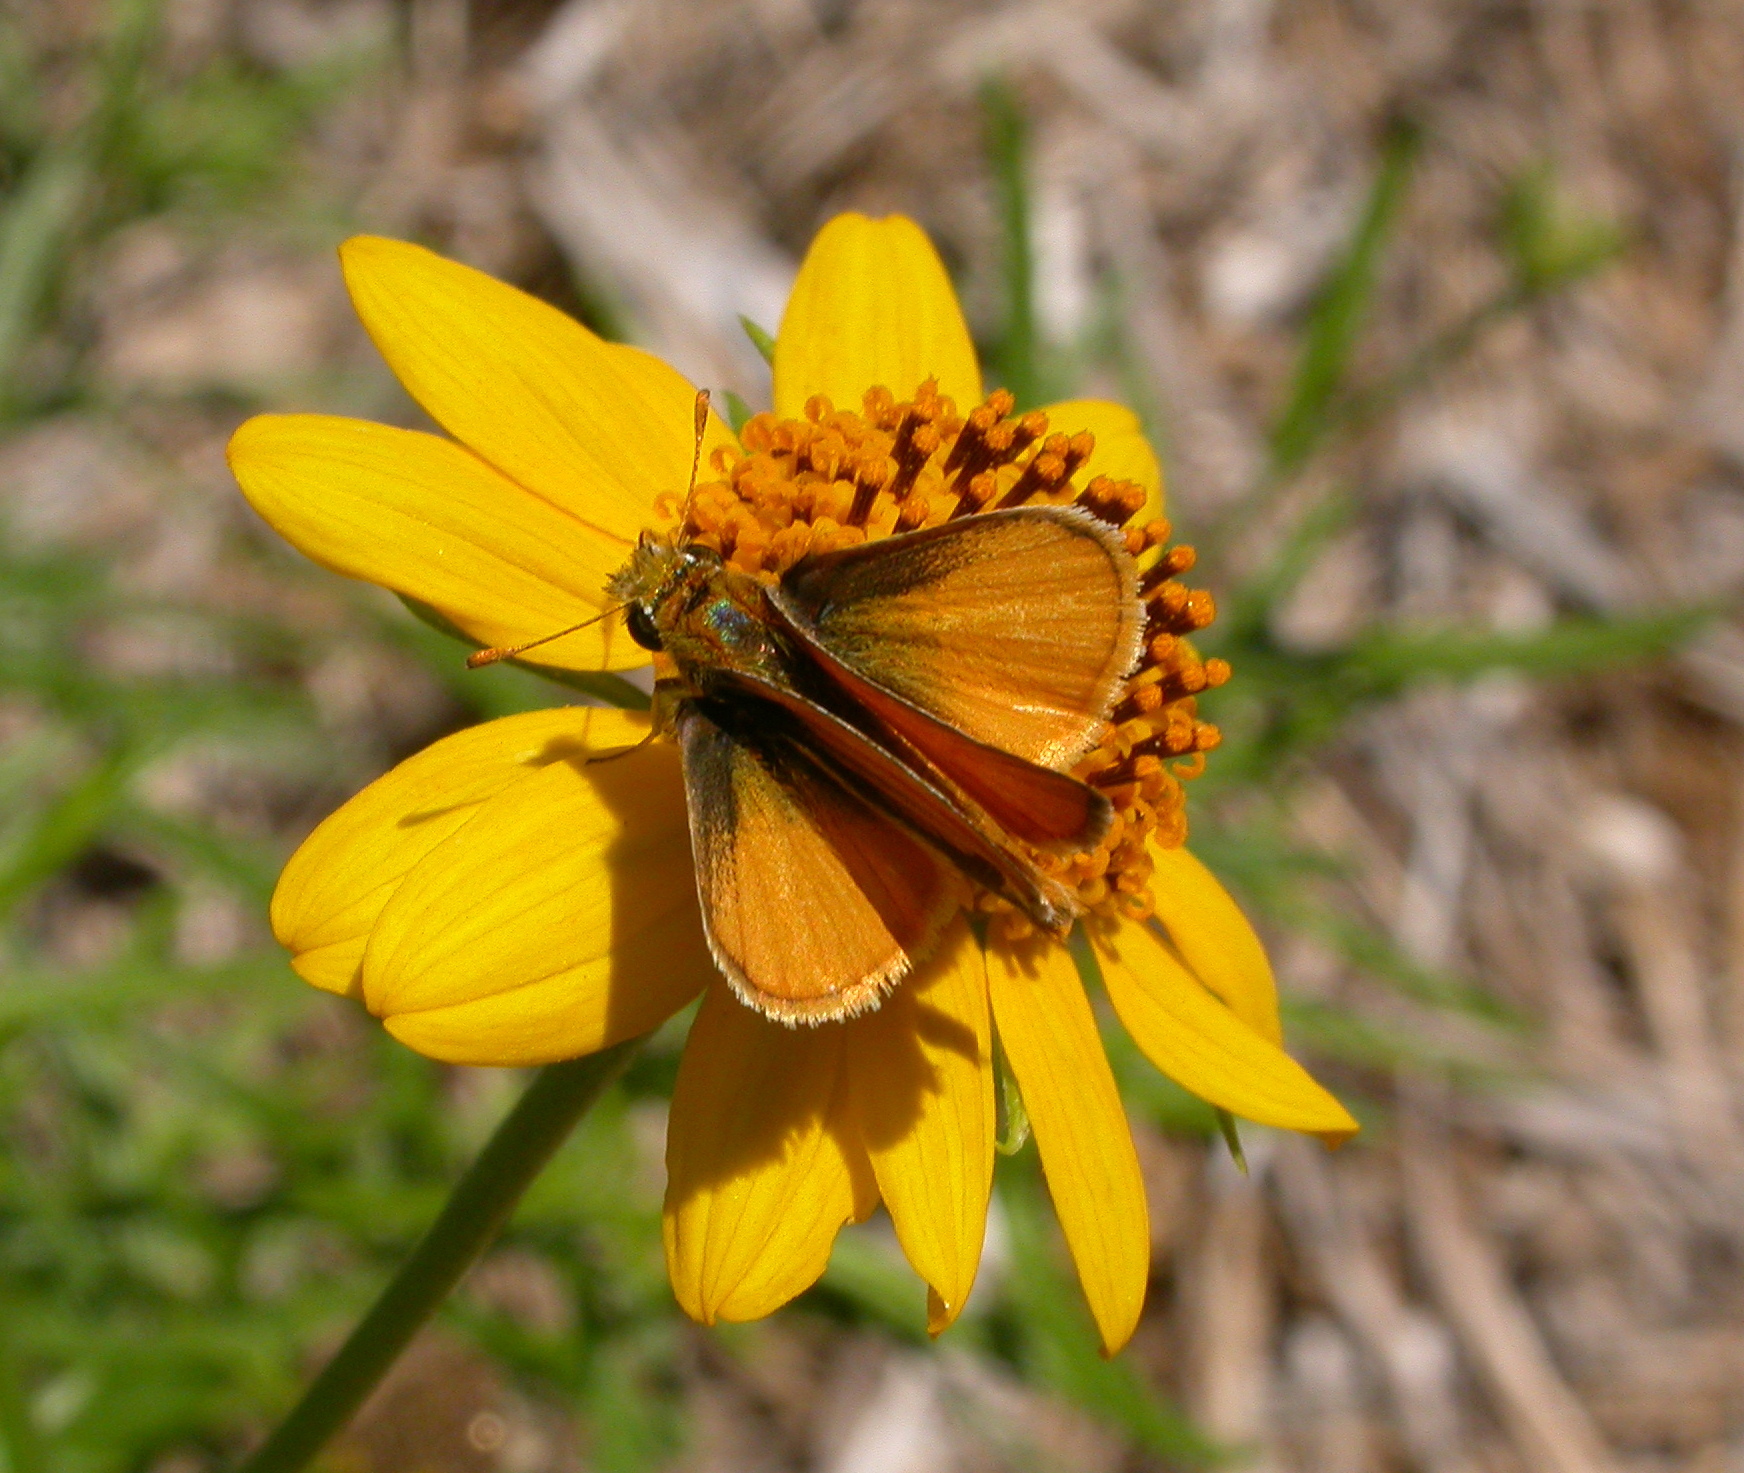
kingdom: Animalia
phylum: Arthropoda
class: Insecta
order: Lepidoptera
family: Hesperiidae
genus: Copaeodes
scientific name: Copaeodes minima
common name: Southern skipperling
